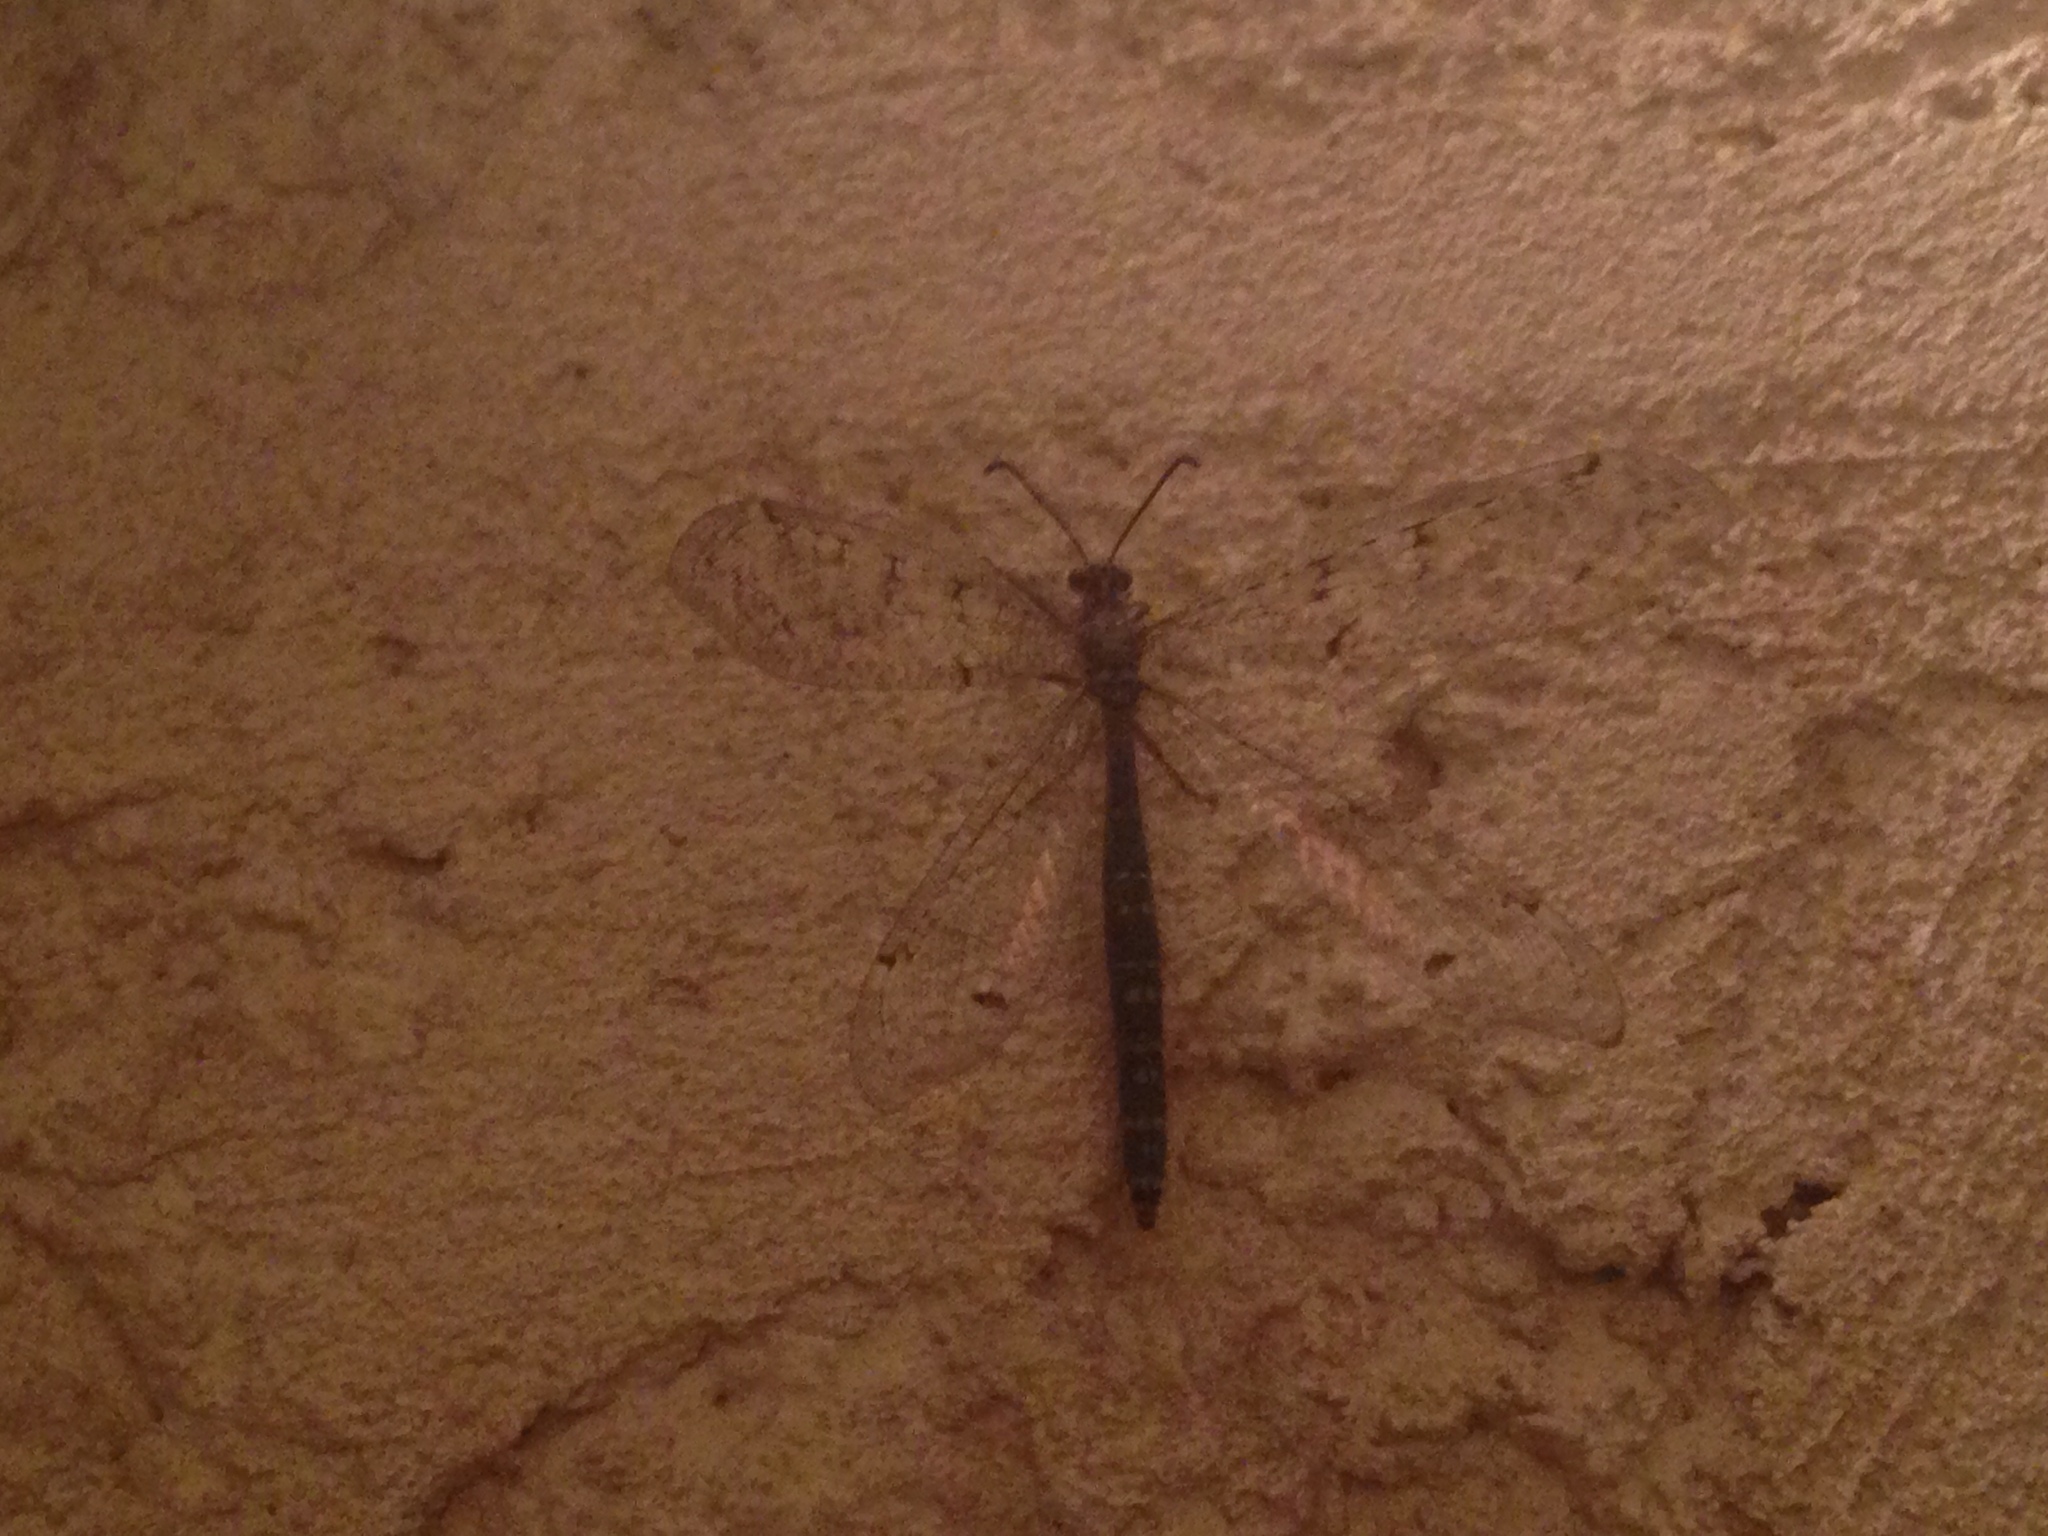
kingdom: Animalia
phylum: Arthropoda
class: Insecta
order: Neuroptera
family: Myrmeleontidae
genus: Distoleon
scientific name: Distoleon tetragrammicus
